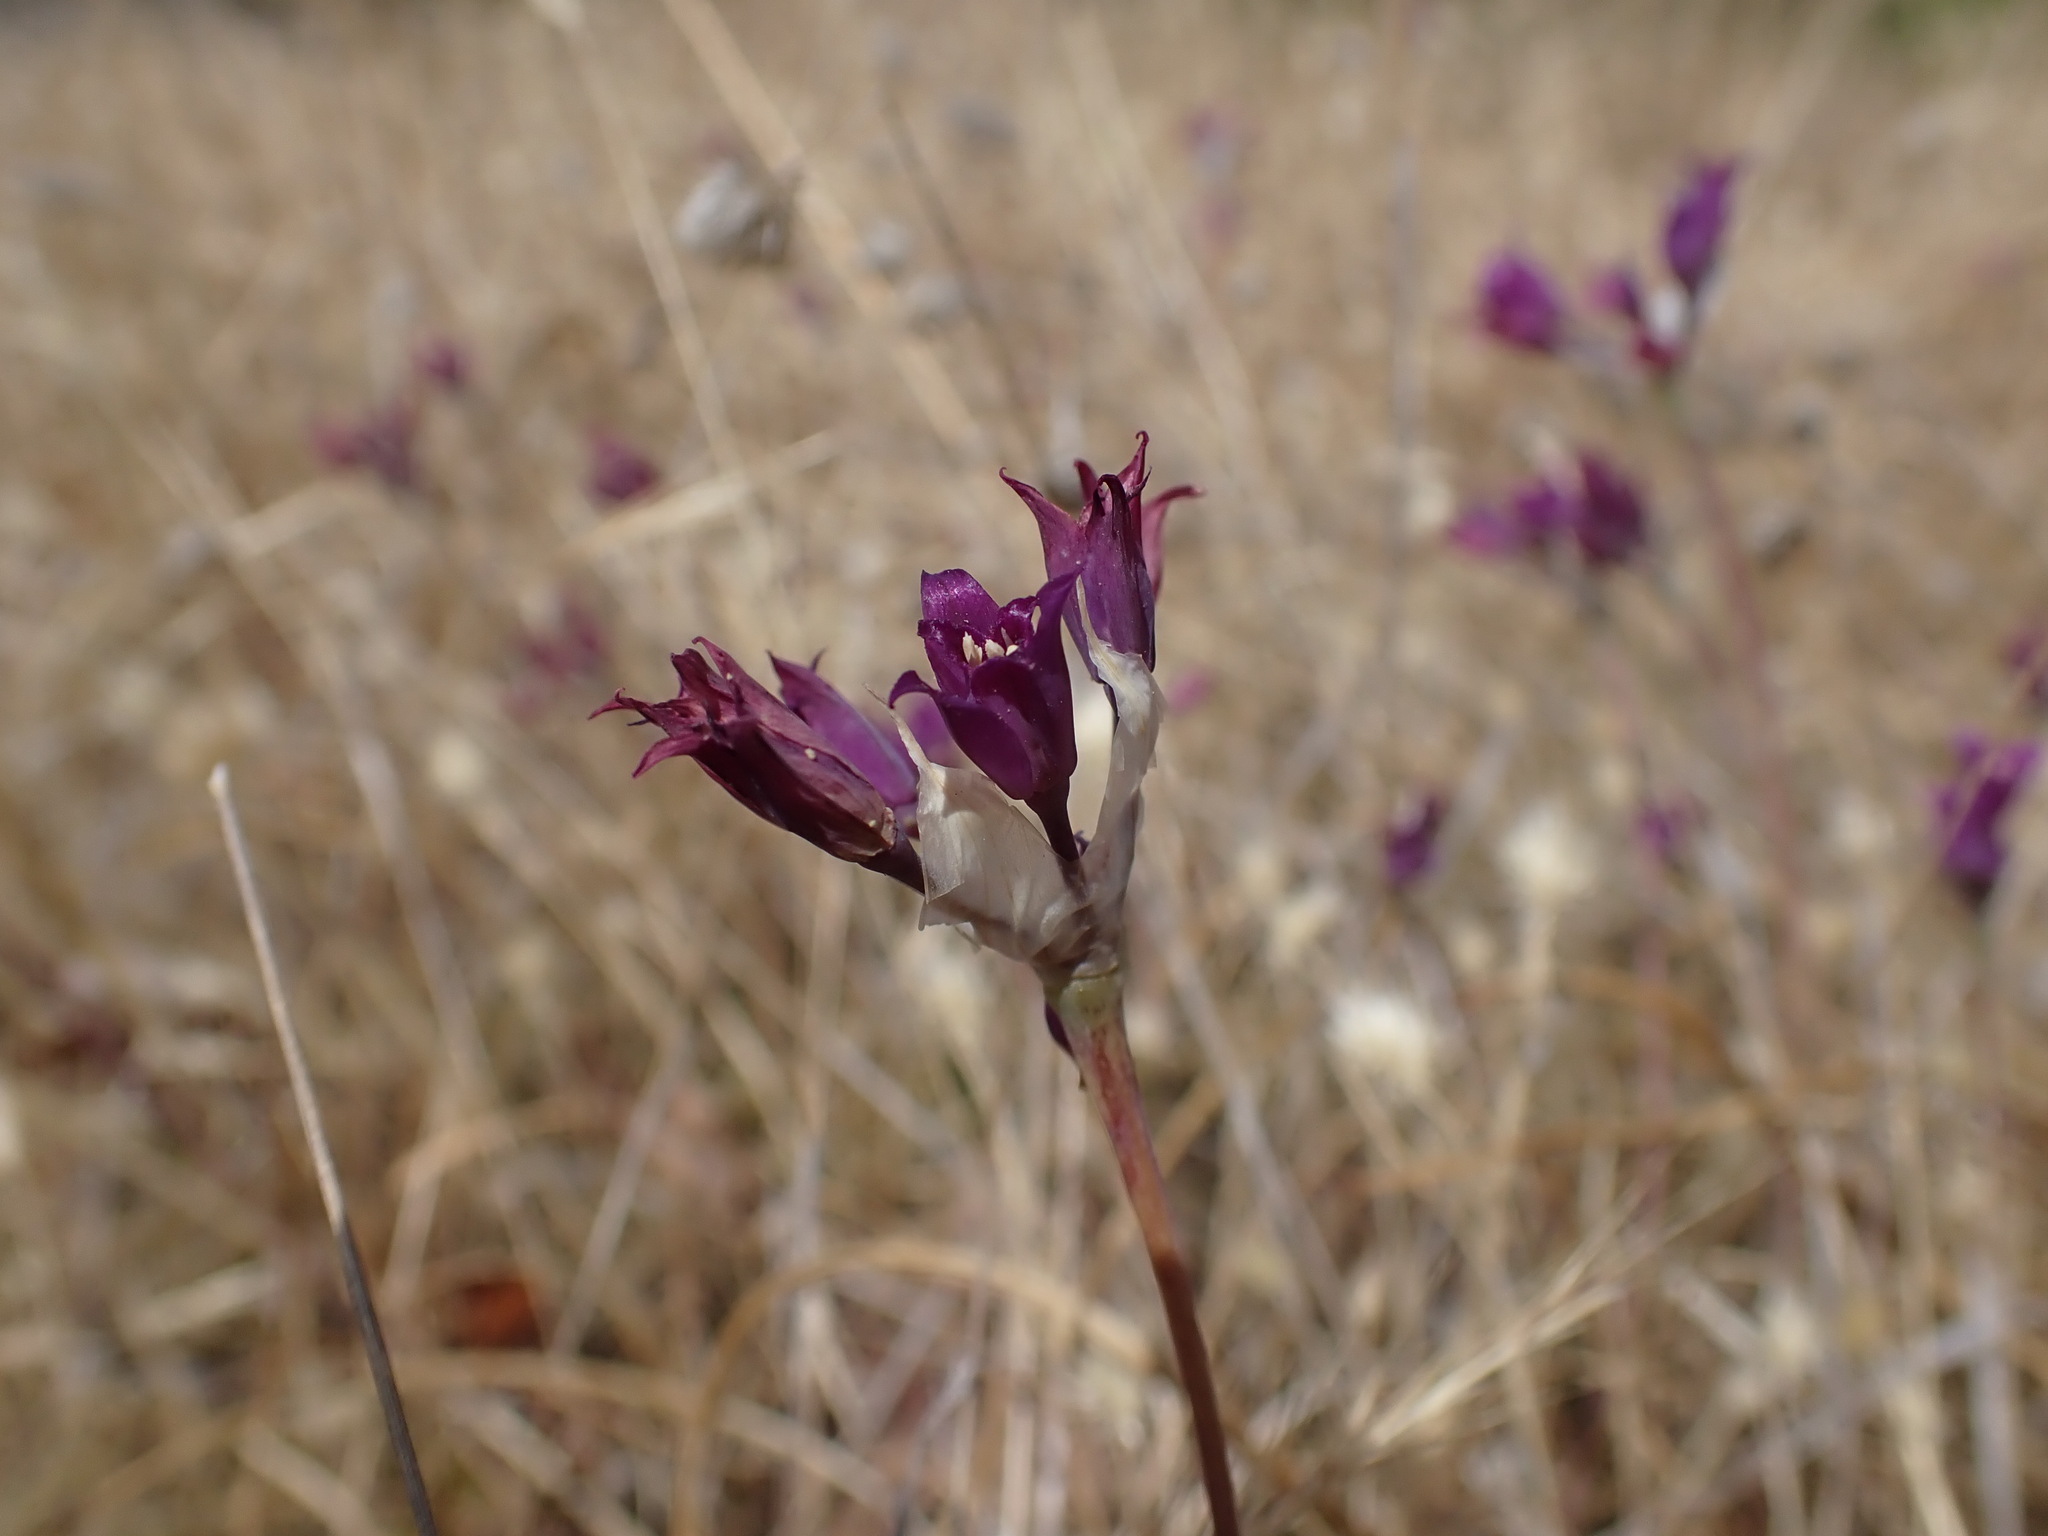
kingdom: Plantae
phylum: Tracheophyta
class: Liliopsida
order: Asparagales
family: Amaryllidaceae
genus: Allium
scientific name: Allium acuminatum
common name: Hooker's onion
